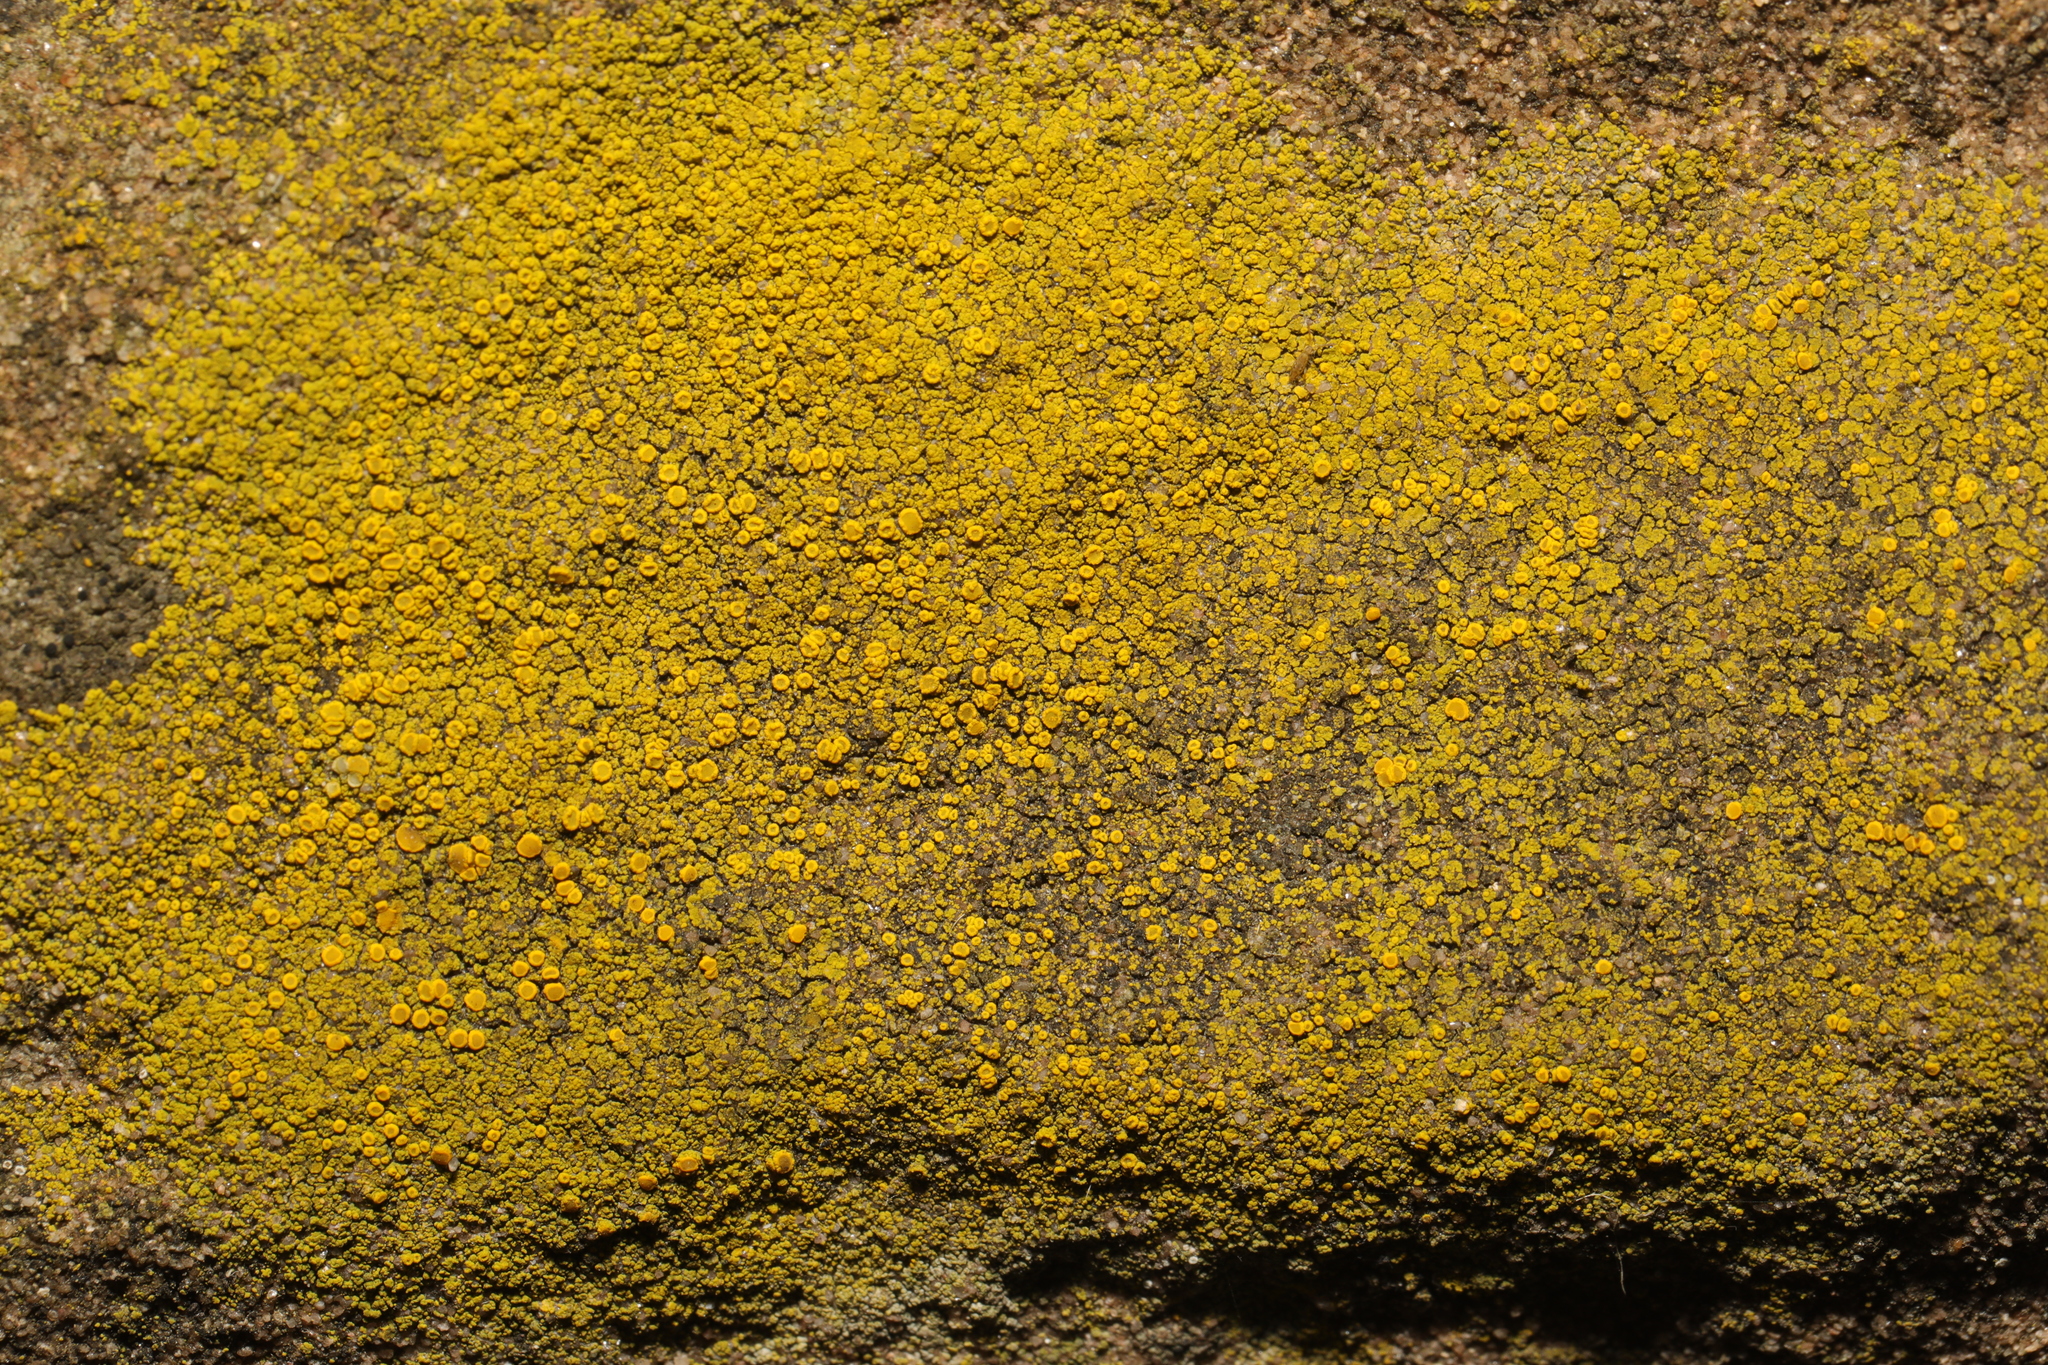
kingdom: Fungi
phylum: Ascomycota
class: Candelariomycetes
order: Candelariales
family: Candelariaceae
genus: Candelariella
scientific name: Candelariella vitellina
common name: Common goldspeck
